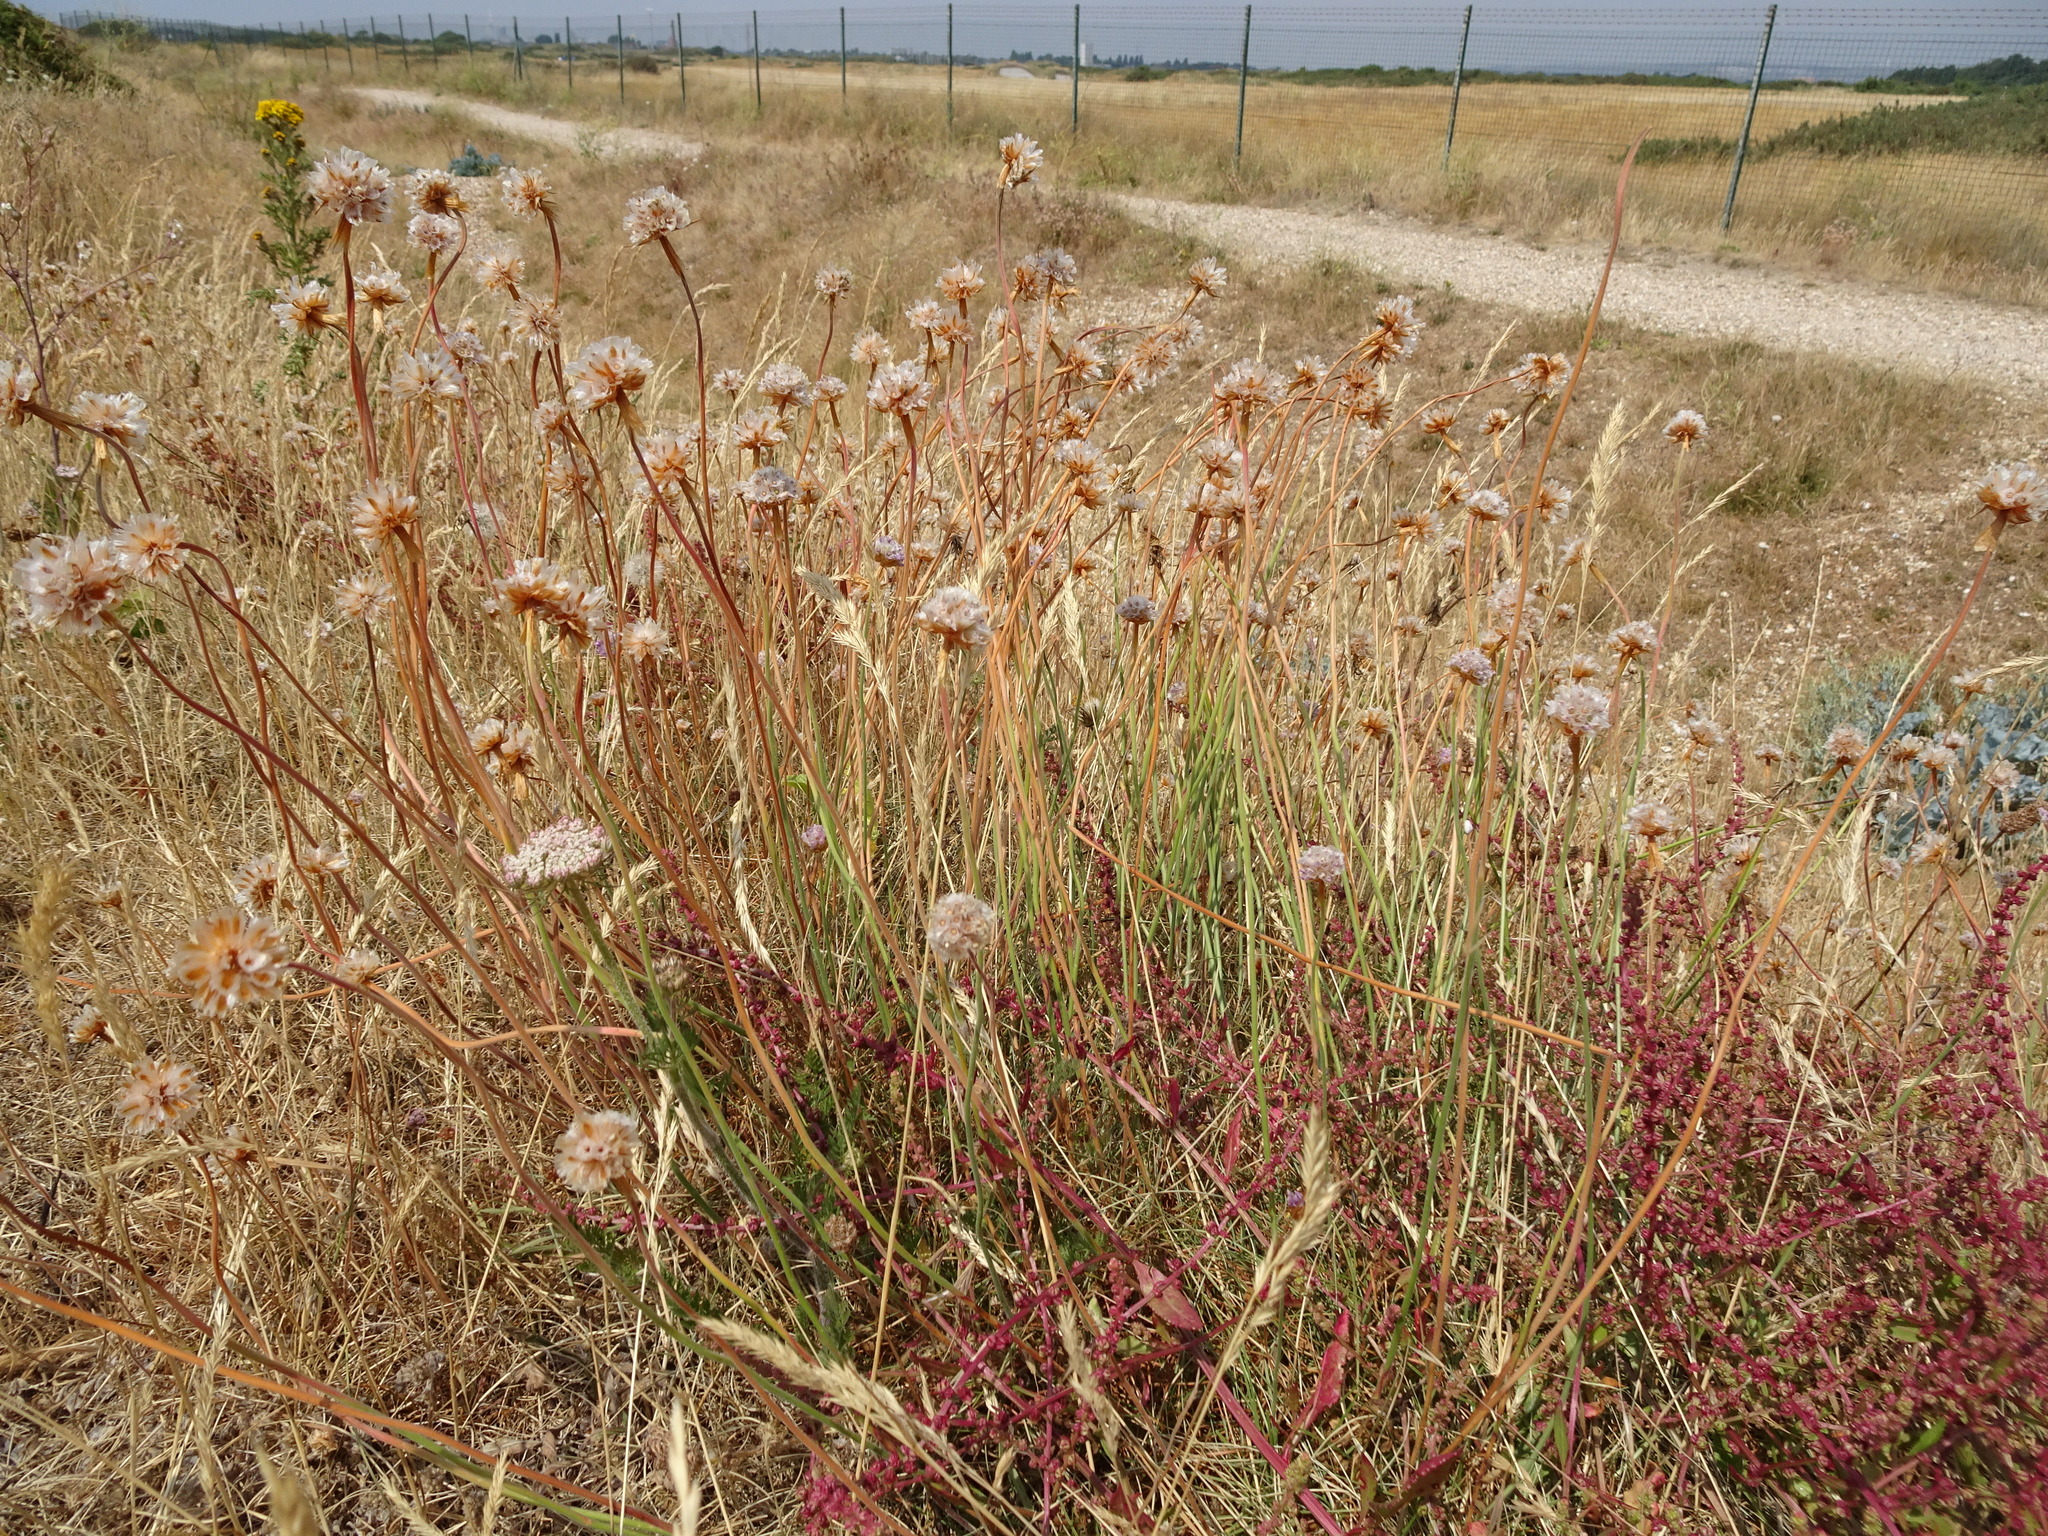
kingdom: Plantae
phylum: Tracheophyta
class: Magnoliopsida
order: Caryophyllales
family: Plumbaginaceae
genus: Armeria
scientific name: Armeria maritima
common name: Thrift
